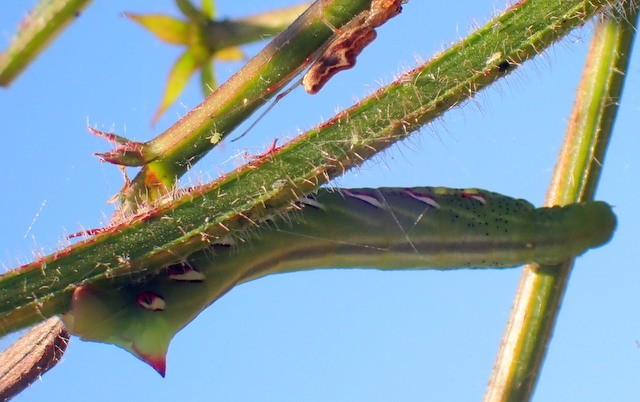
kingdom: Animalia
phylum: Arthropoda
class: Insecta
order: Lepidoptera
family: Sphingidae
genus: Eumorpha
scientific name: Eumorpha fasciatus
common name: Banded sphinx
